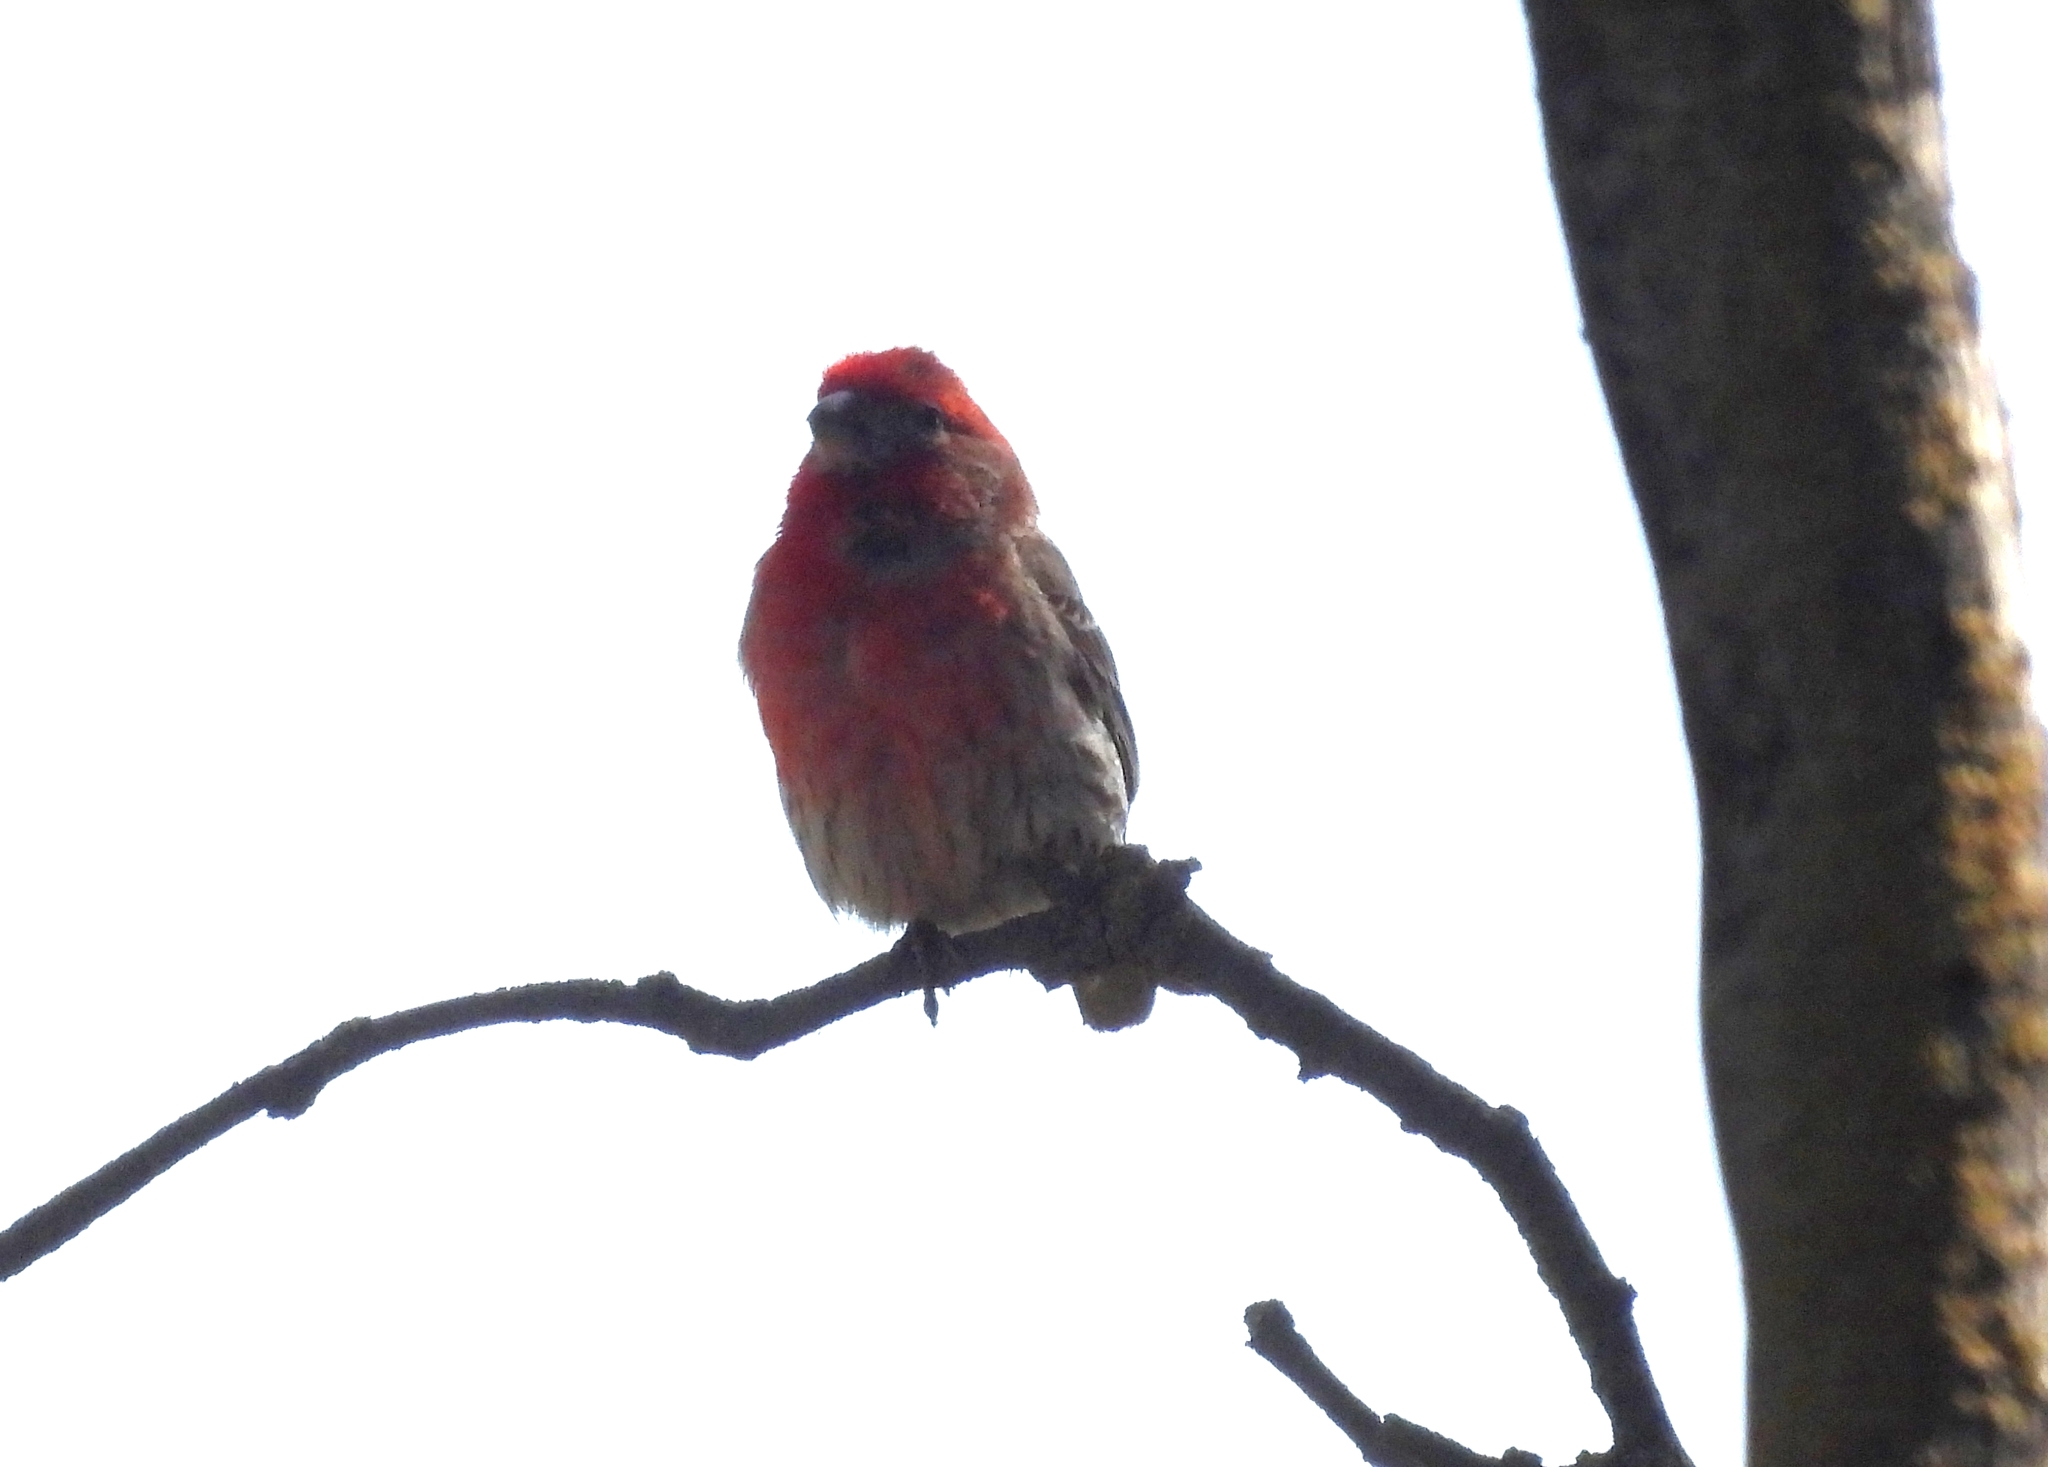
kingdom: Animalia
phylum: Chordata
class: Aves
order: Passeriformes
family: Fringillidae
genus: Haemorhous
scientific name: Haemorhous mexicanus
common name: House finch
